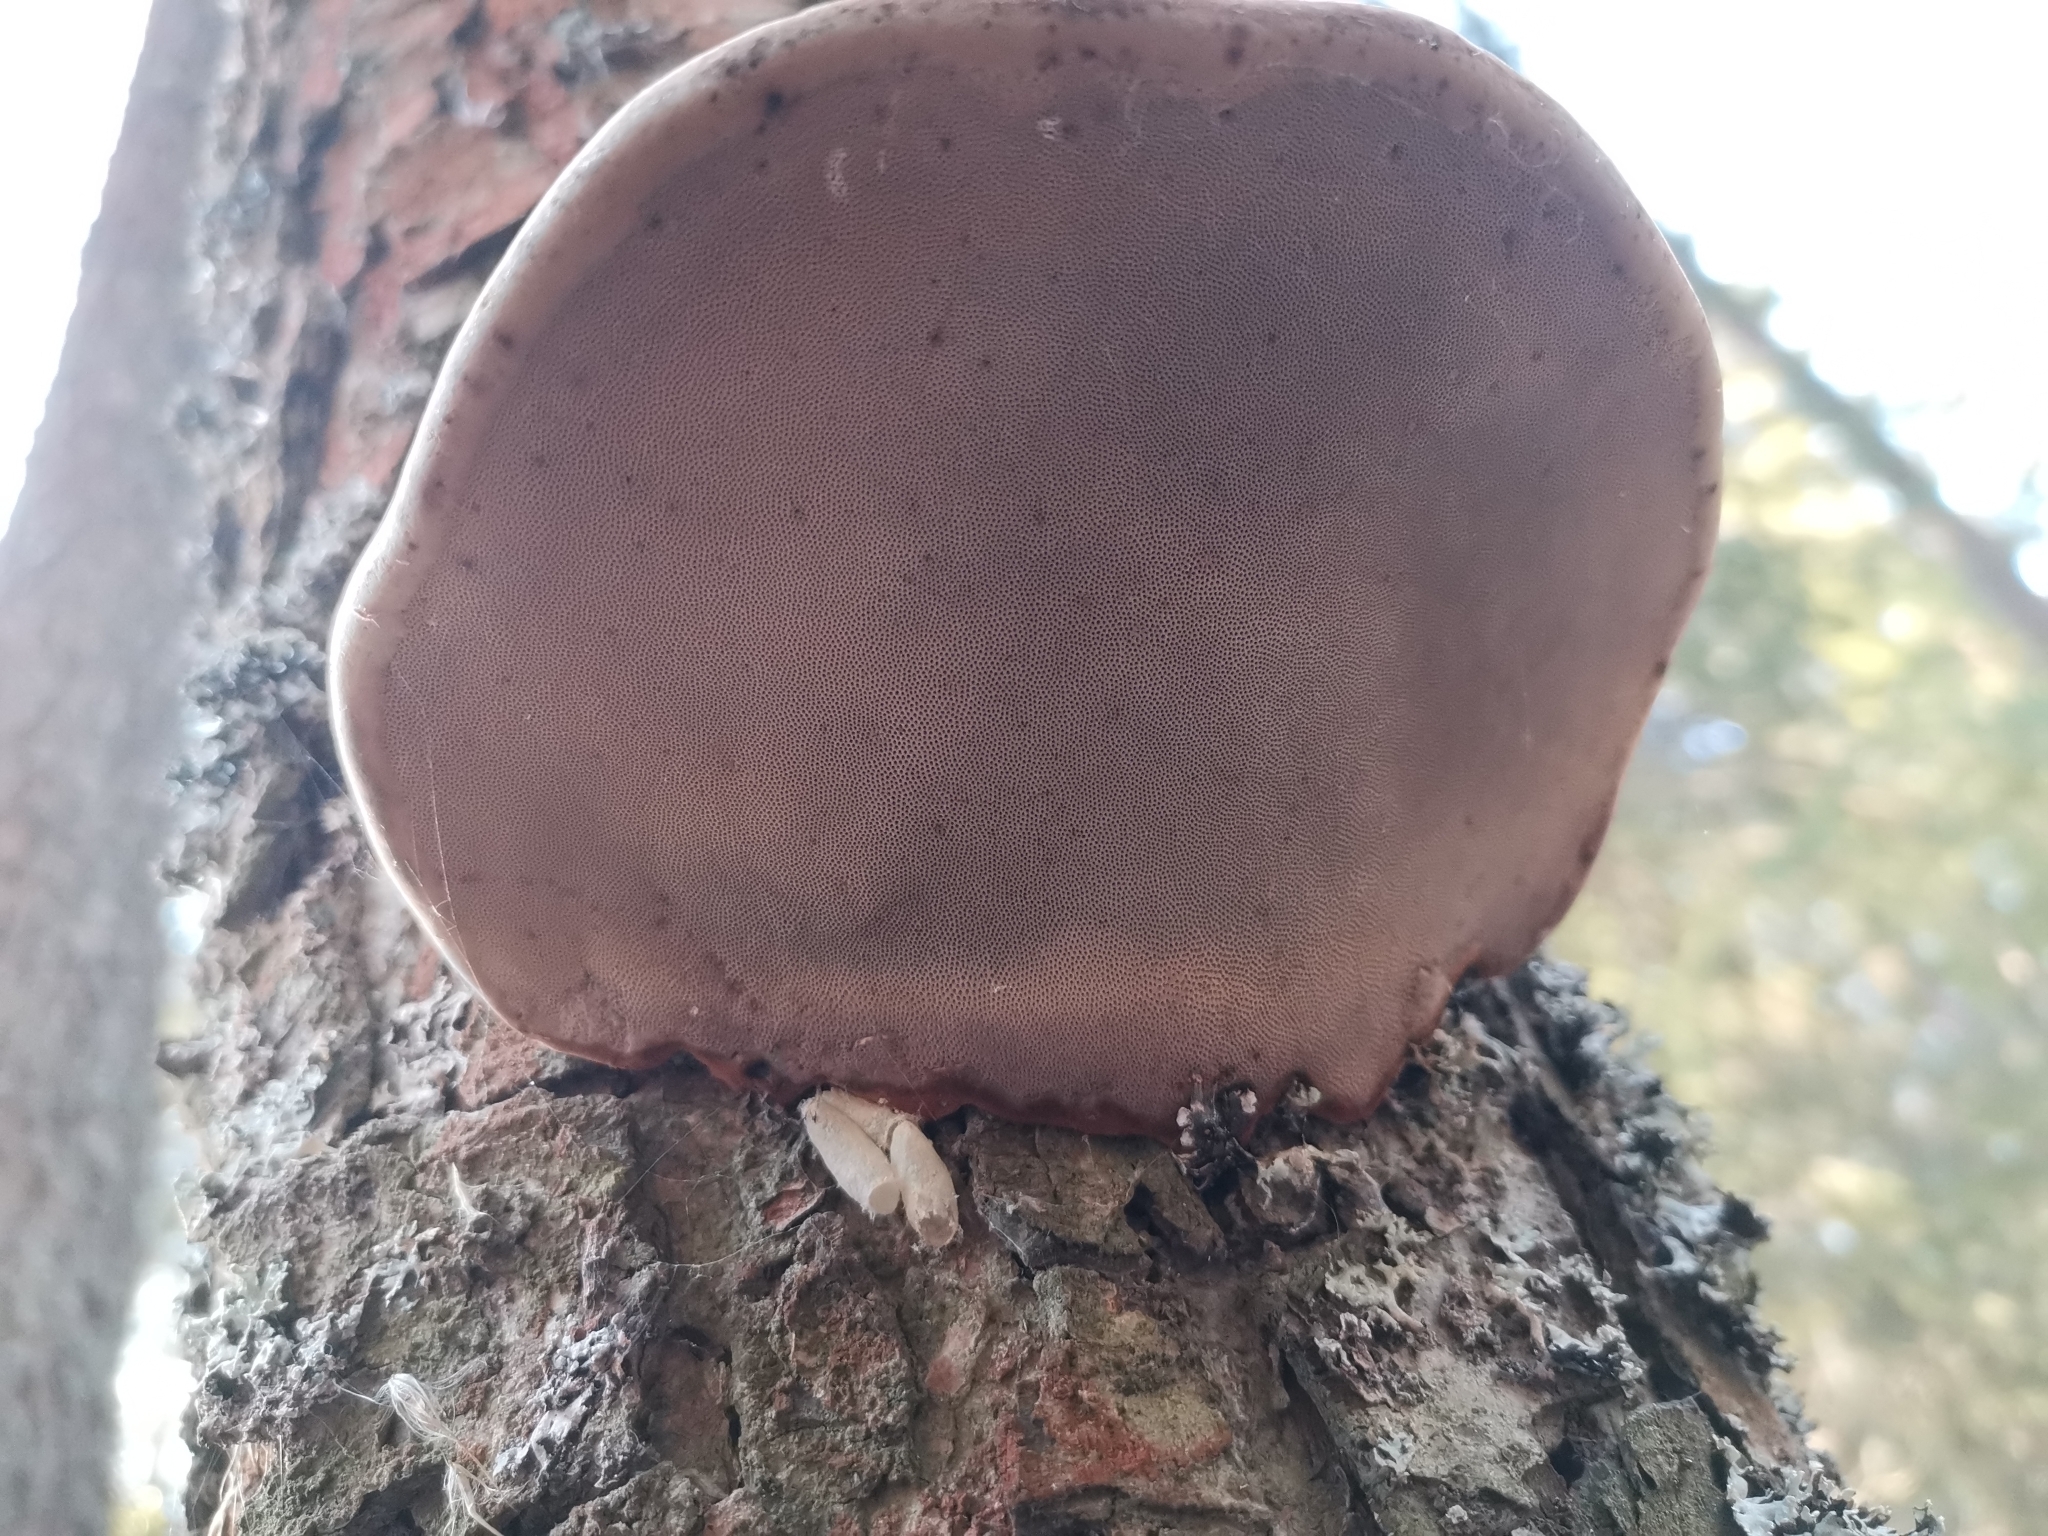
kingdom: Fungi
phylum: Basidiomycota
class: Agaricomycetes
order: Polyporales
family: Polyporaceae
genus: Fomes
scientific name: Fomes fomentarius
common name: Hoof fungus
